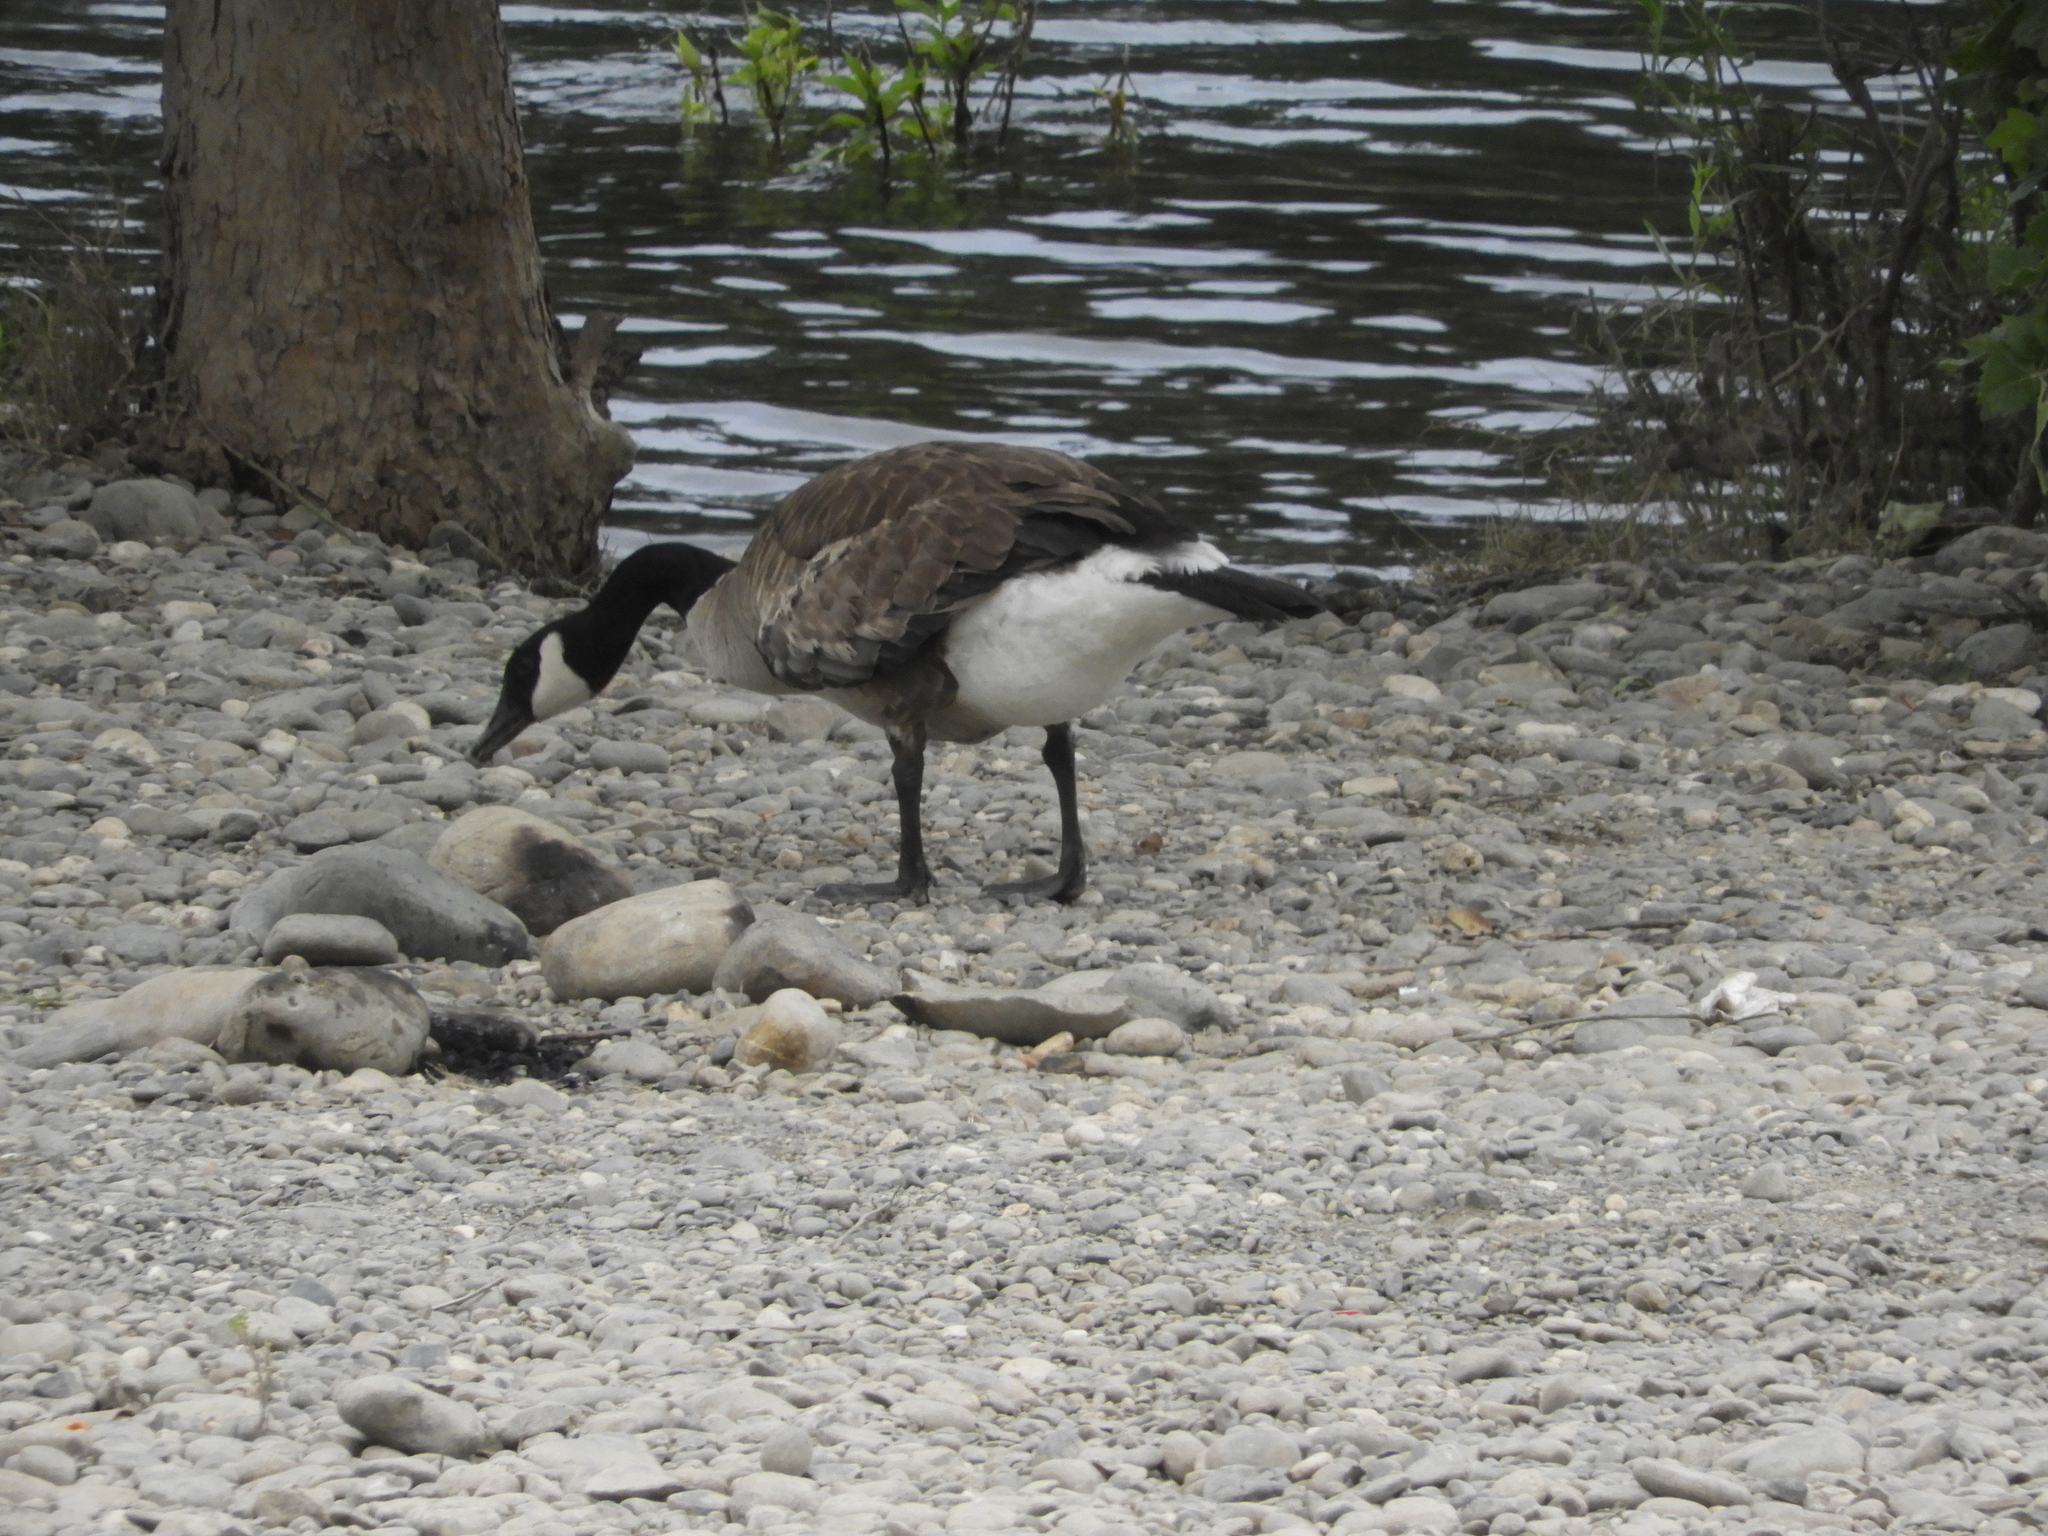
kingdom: Animalia
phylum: Chordata
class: Aves
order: Anseriformes
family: Anatidae
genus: Branta
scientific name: Branta canadensis
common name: Canada goose
